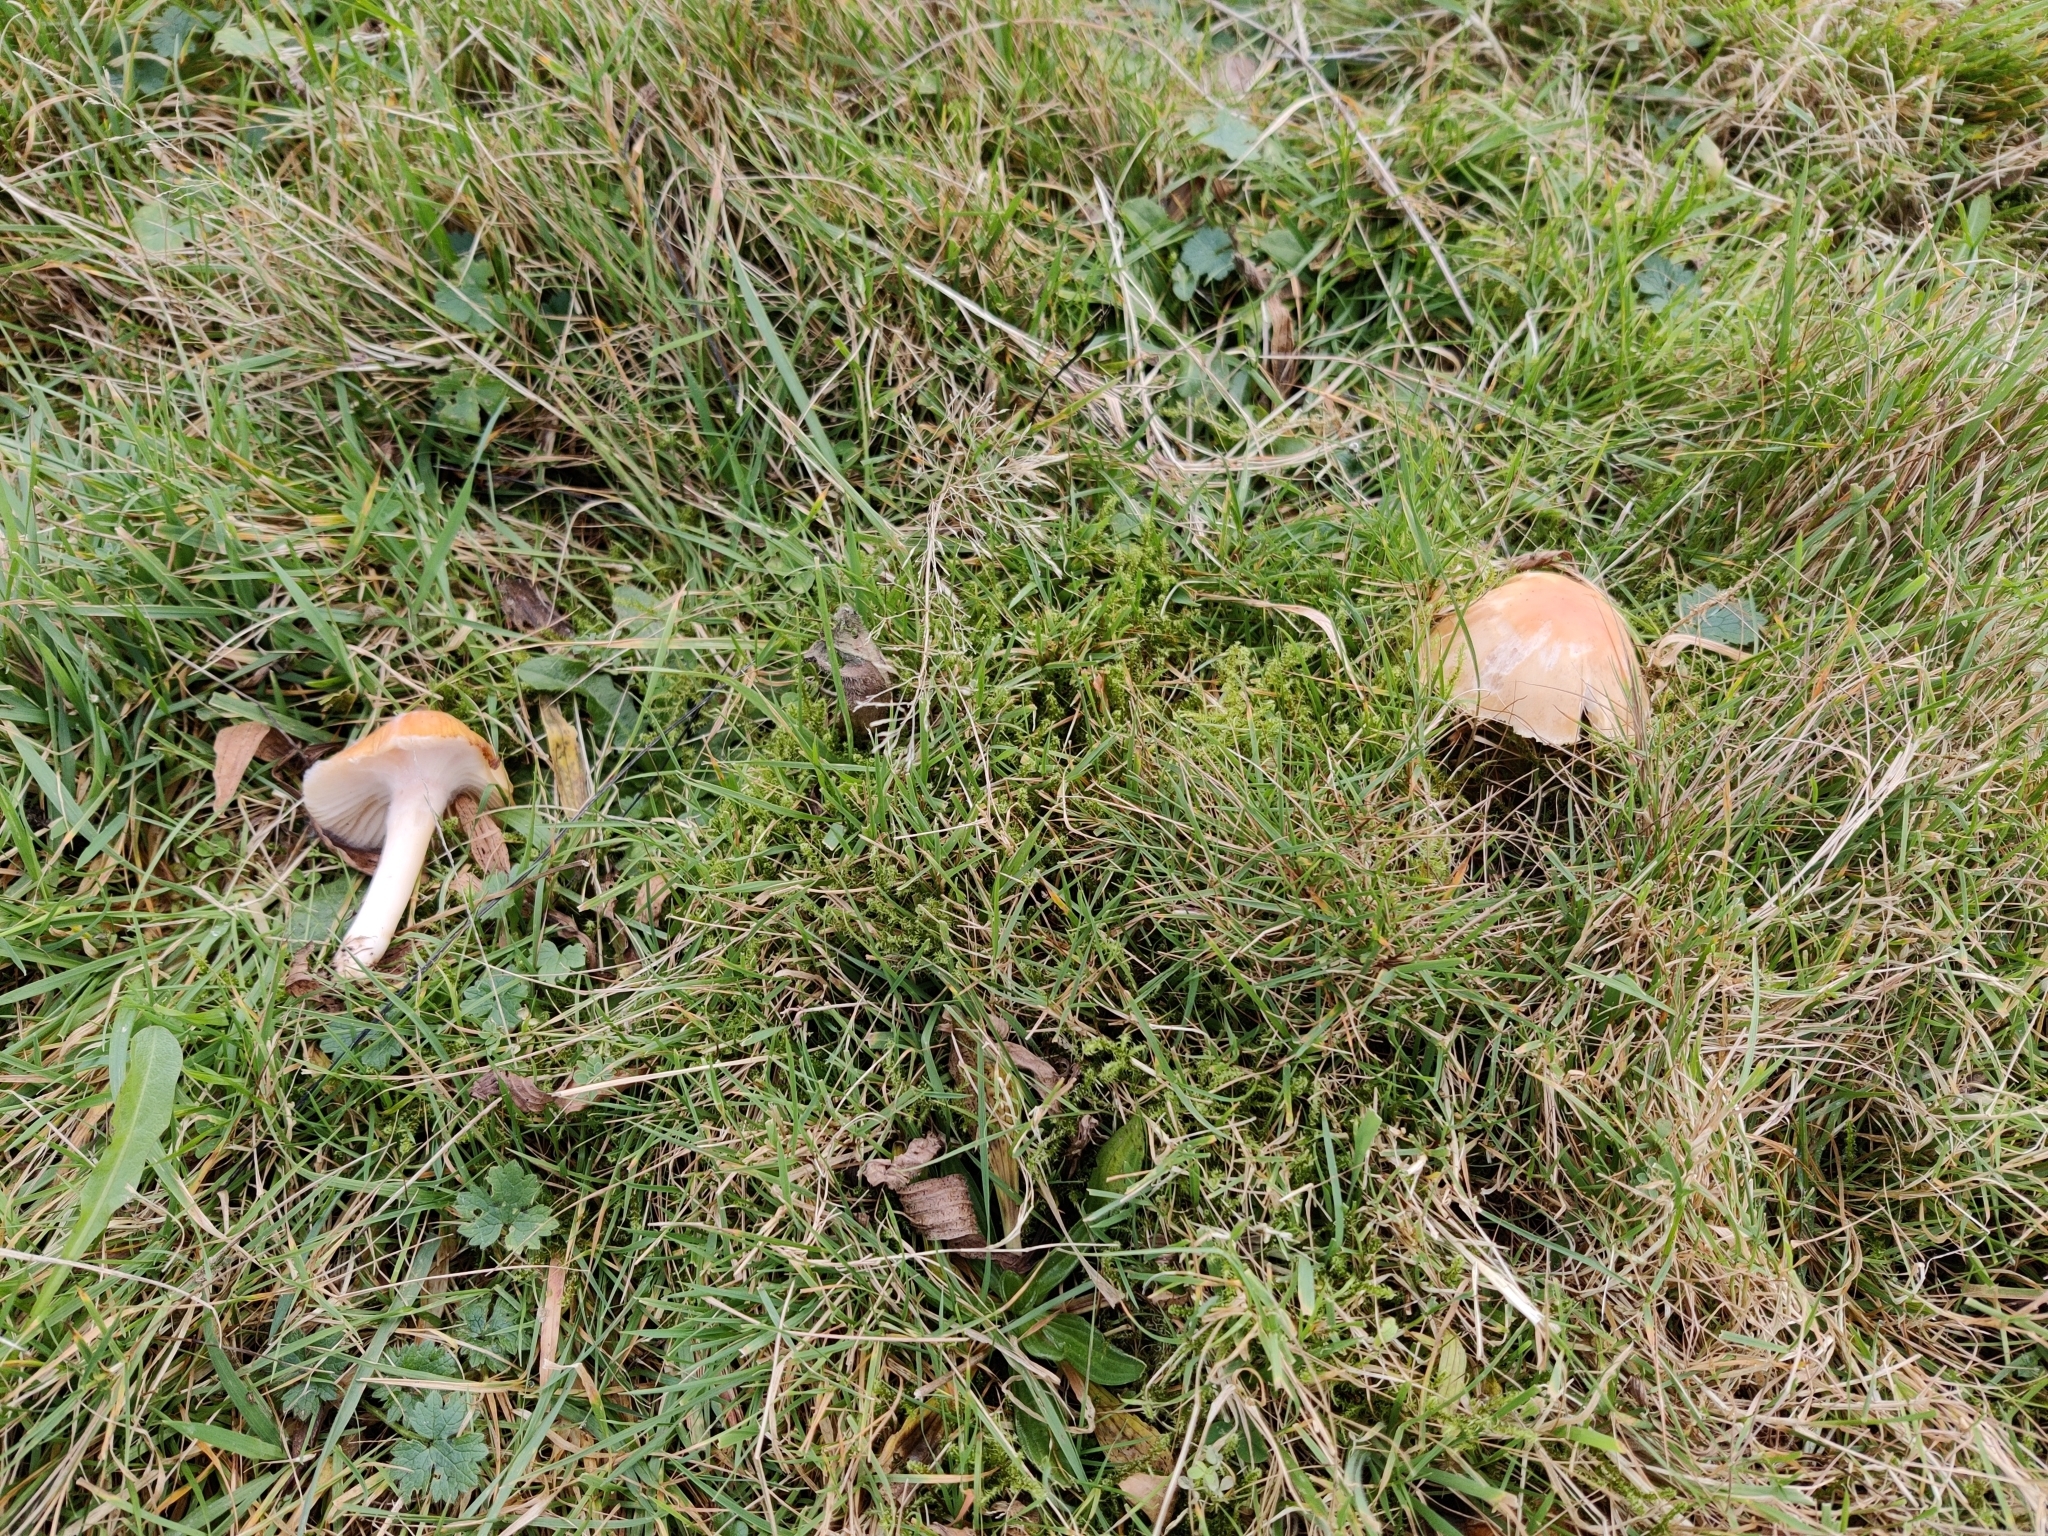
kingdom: Fungi
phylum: Basidiomycota
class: Agaricomycetes
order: Agaricales
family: Hygrophoraceae
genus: Cuphophyllus
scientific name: Cuphophyllus pratensis
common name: Meadow waxcap
